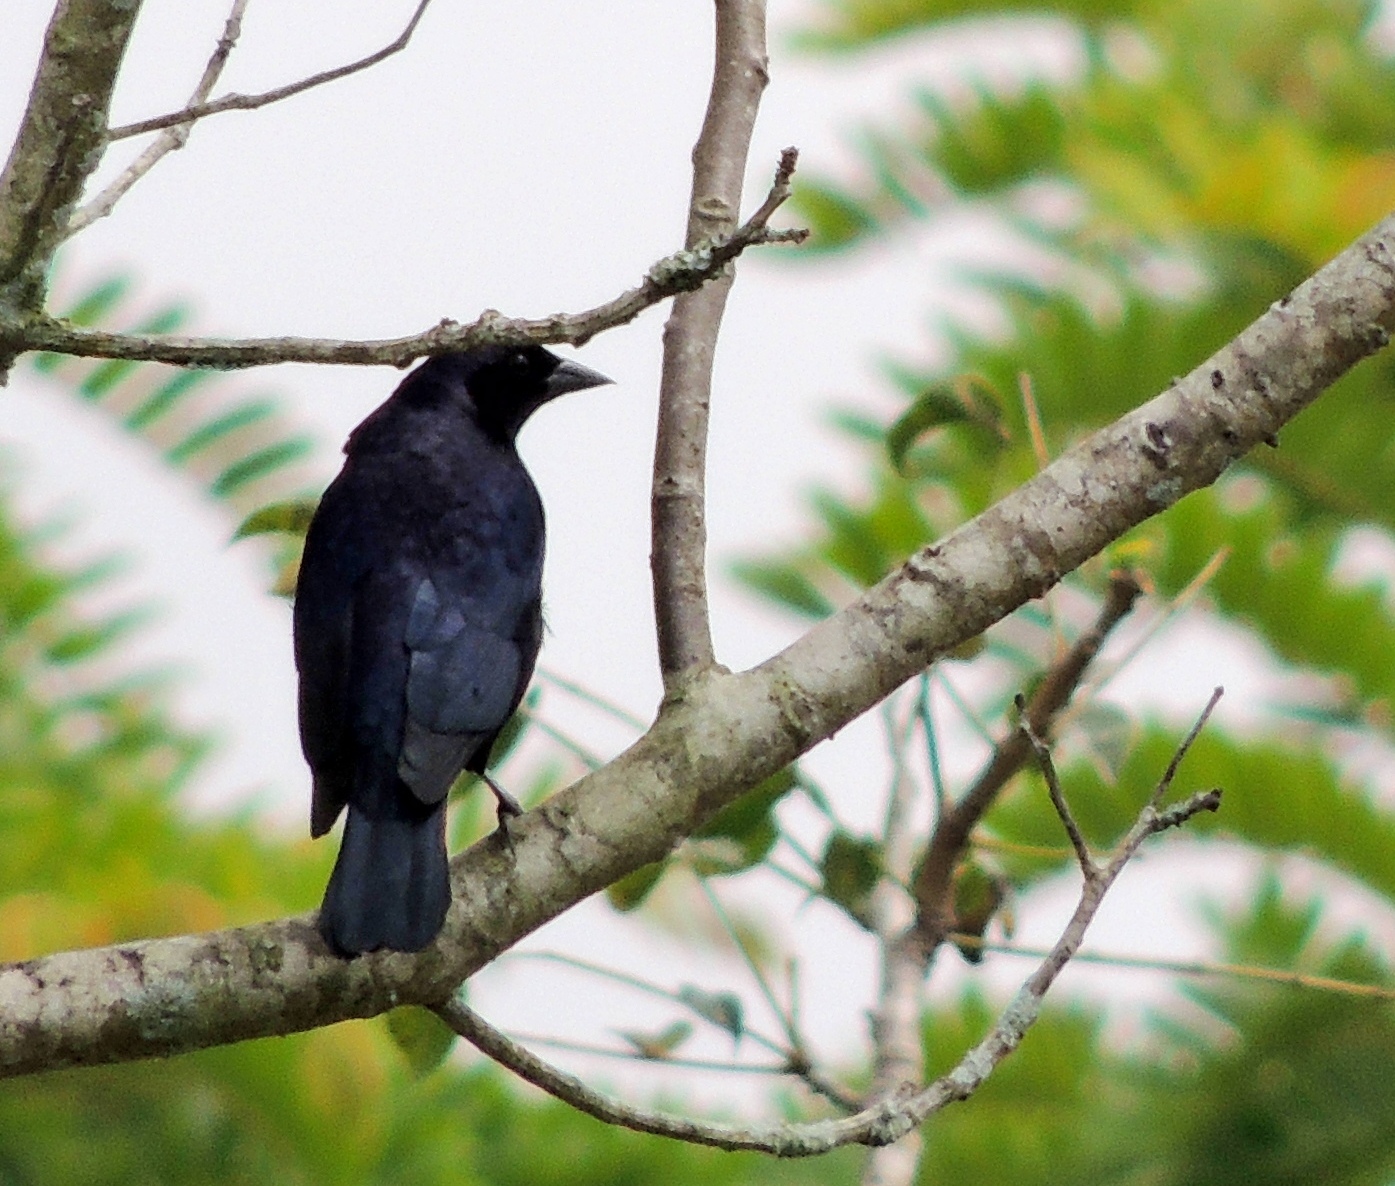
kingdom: Animalia
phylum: Chordata
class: Aves
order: Passeriformes
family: Icteridae
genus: Molothrus
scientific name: Molothrus bonariensis
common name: Shiny cowbird
